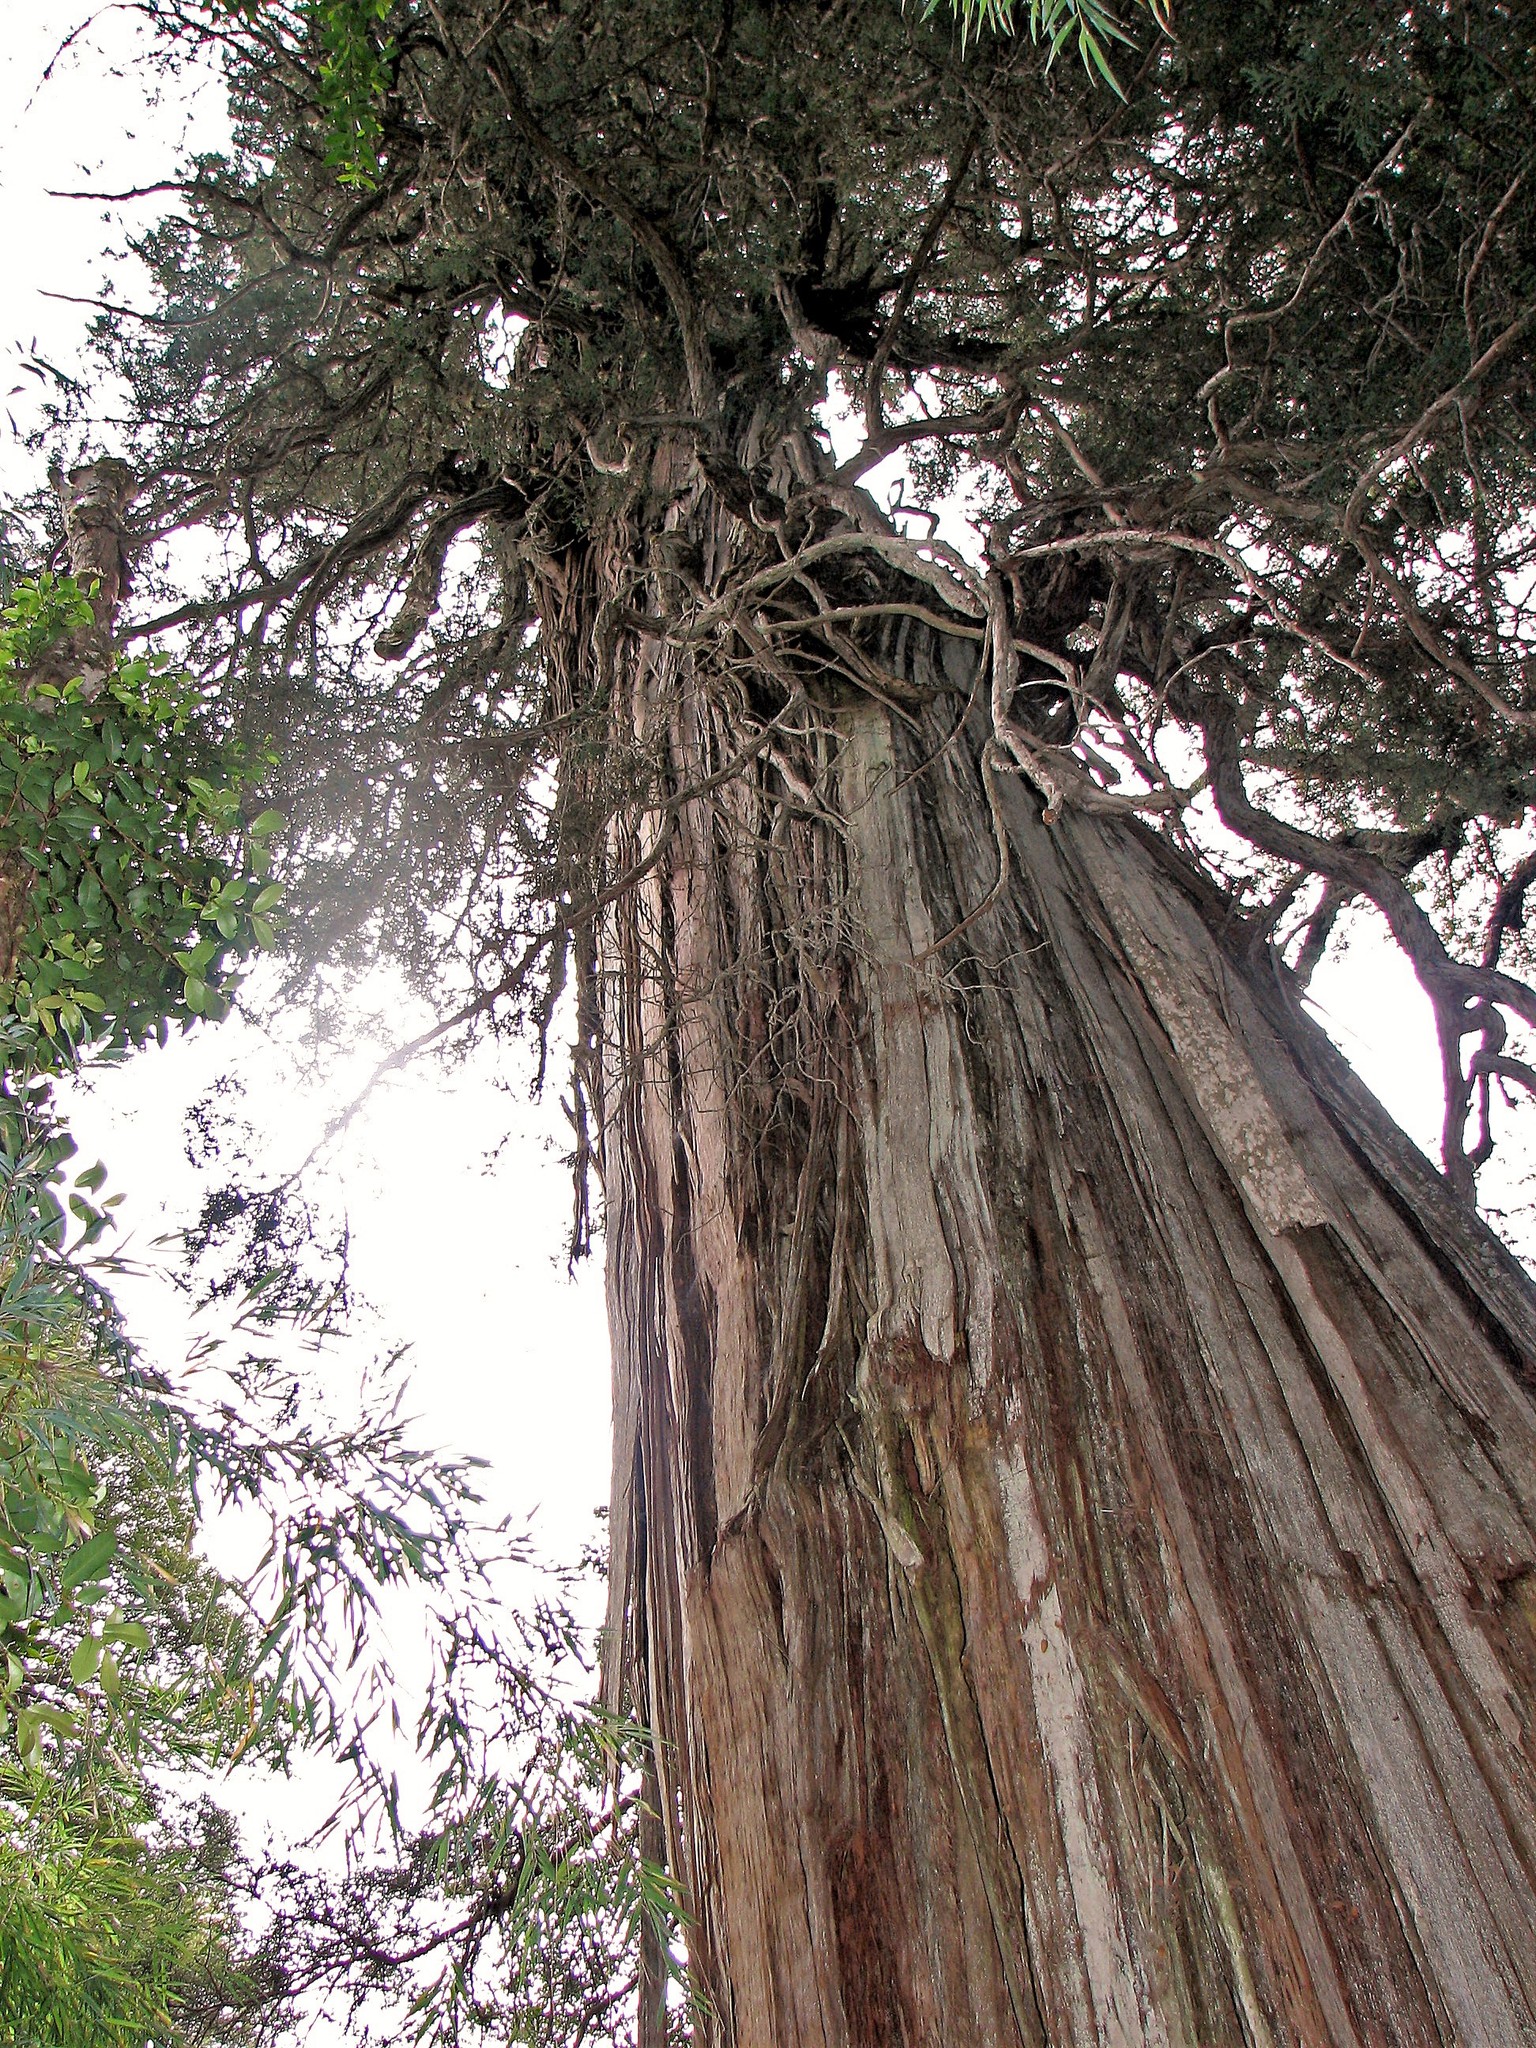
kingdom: Plantae
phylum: Tracheophyta
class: Pinopsida
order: Pinales
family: Cupressaceae
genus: Fitzroya
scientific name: Fitzroya cupressoides
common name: Patagonian cypress
